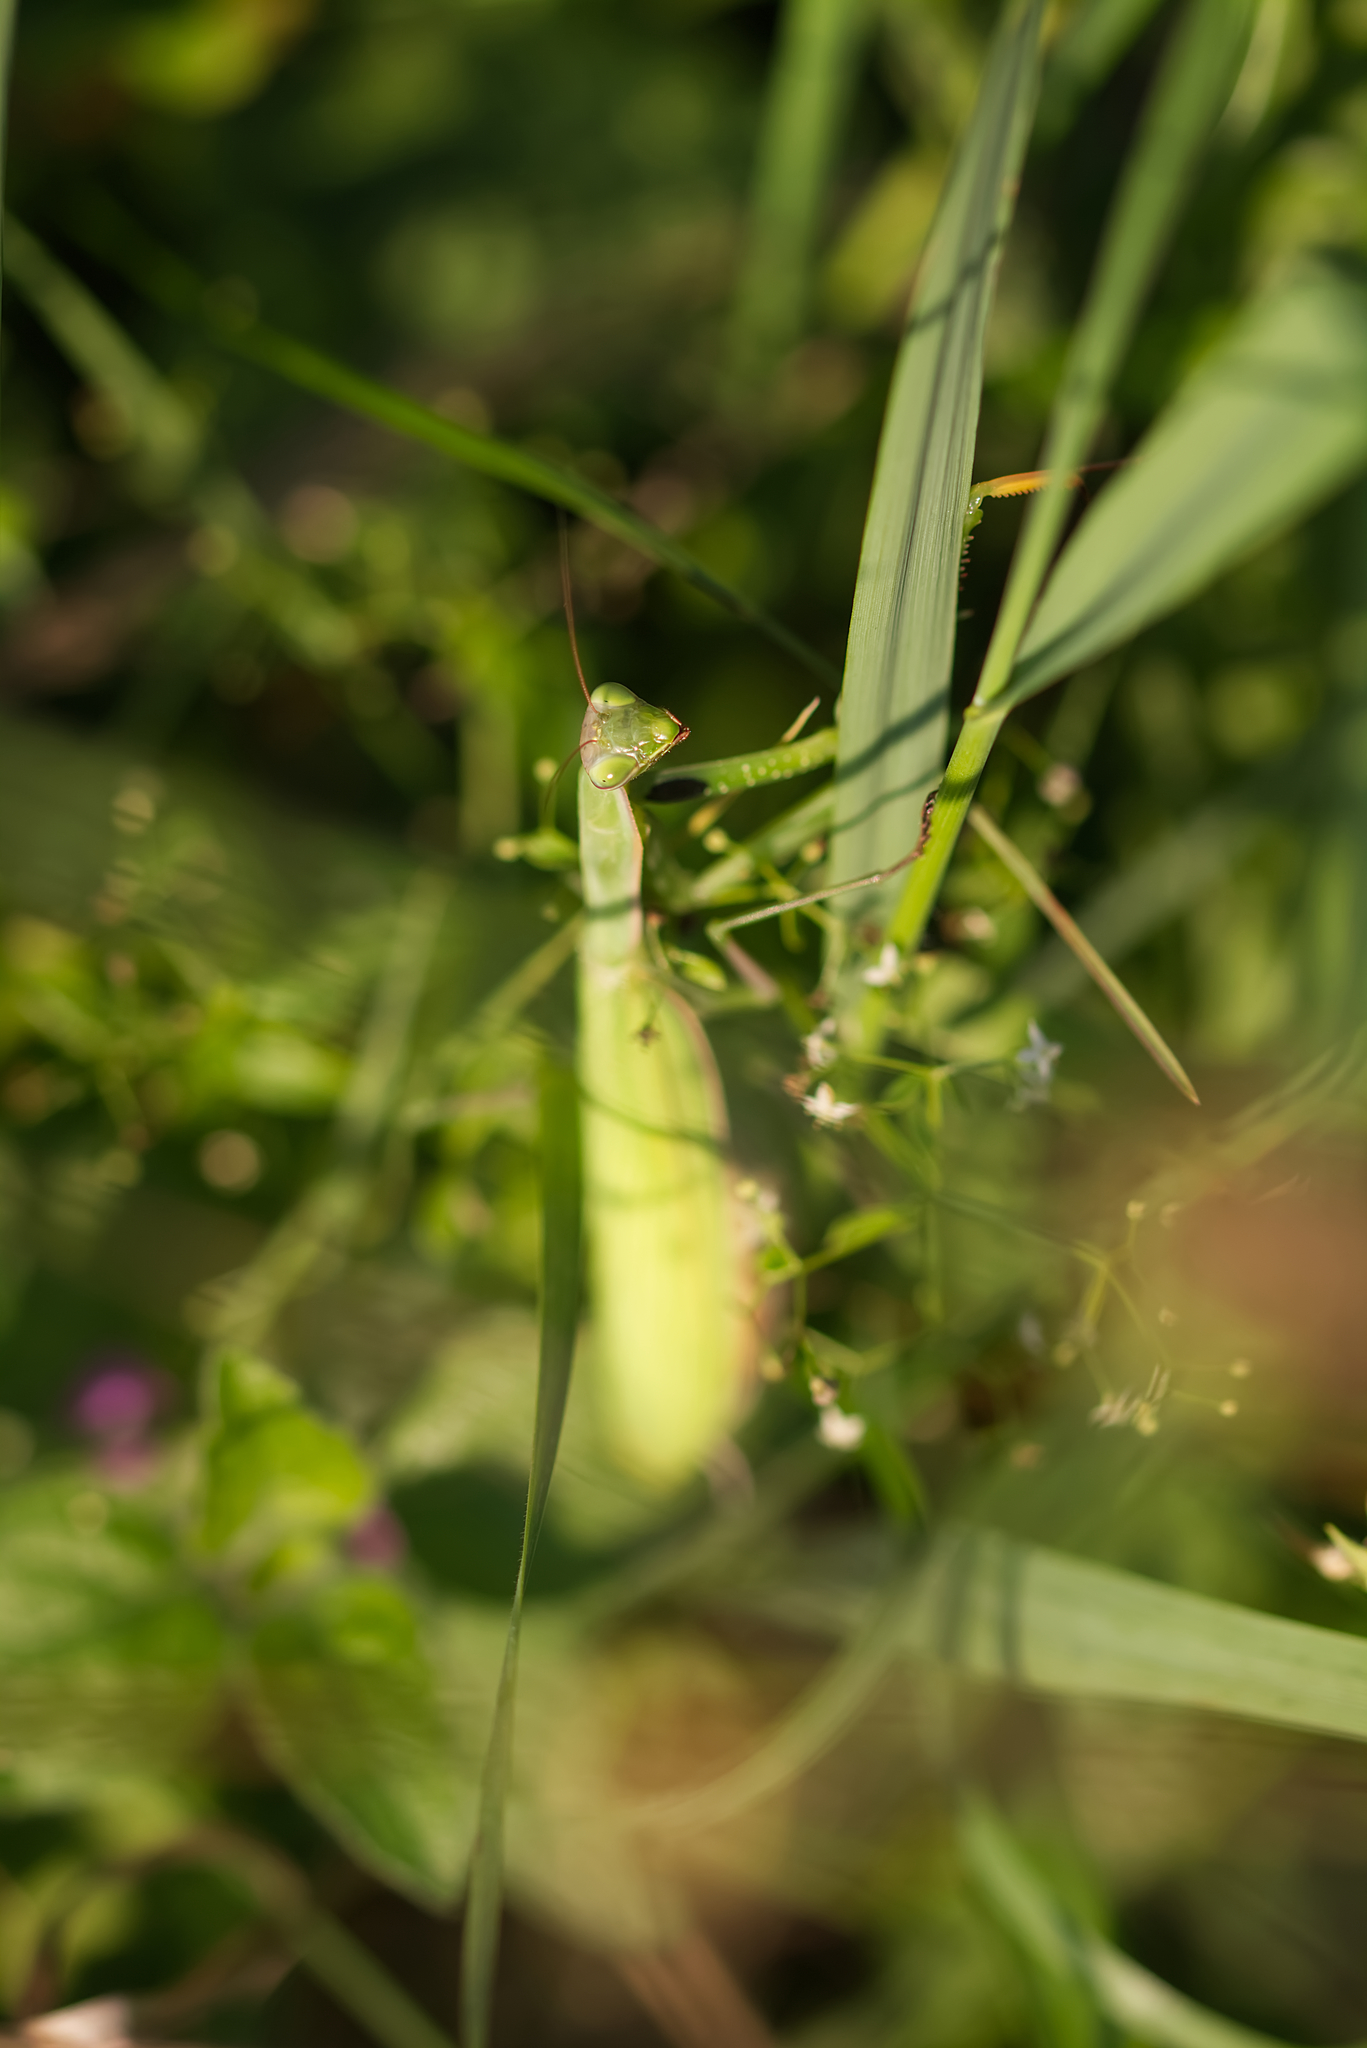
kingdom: Animalia
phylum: Arthropoda
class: Insecta
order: Mantodea
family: Mantidae
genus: Mantis
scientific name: Mantis religiosa
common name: Praying mantis
